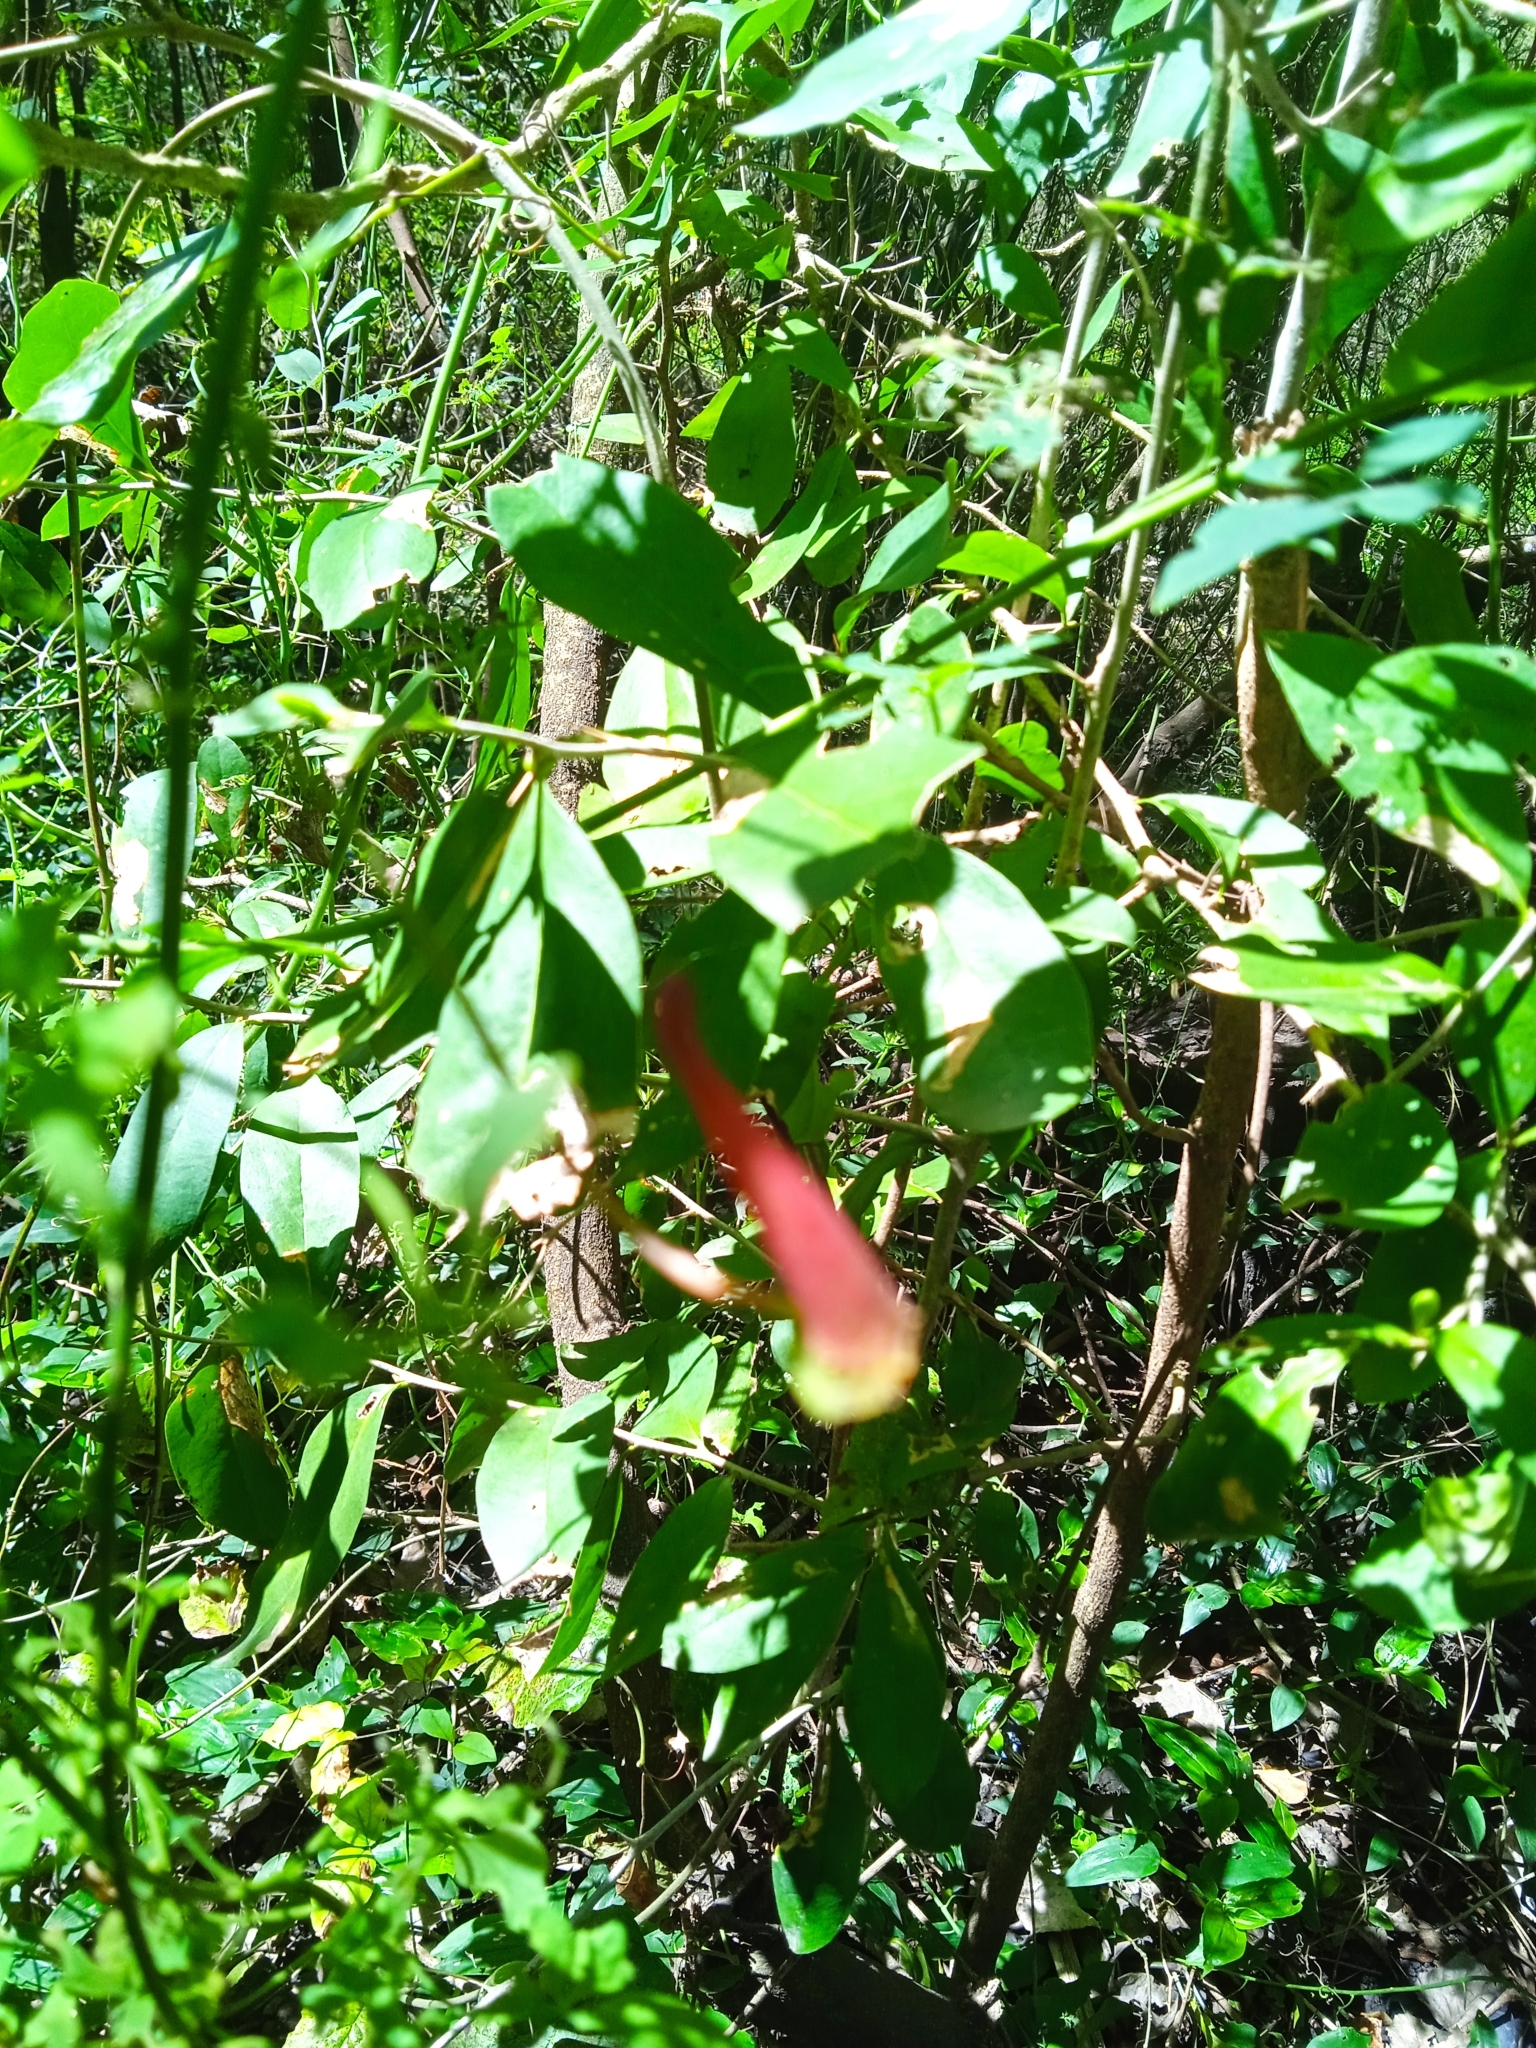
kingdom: Plantae
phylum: Tracheophyta
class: Magnoliopsida
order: Brassicales
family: Tropaeolaceae
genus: Tropaeolum
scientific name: Tropaeolum pentaphyllum
